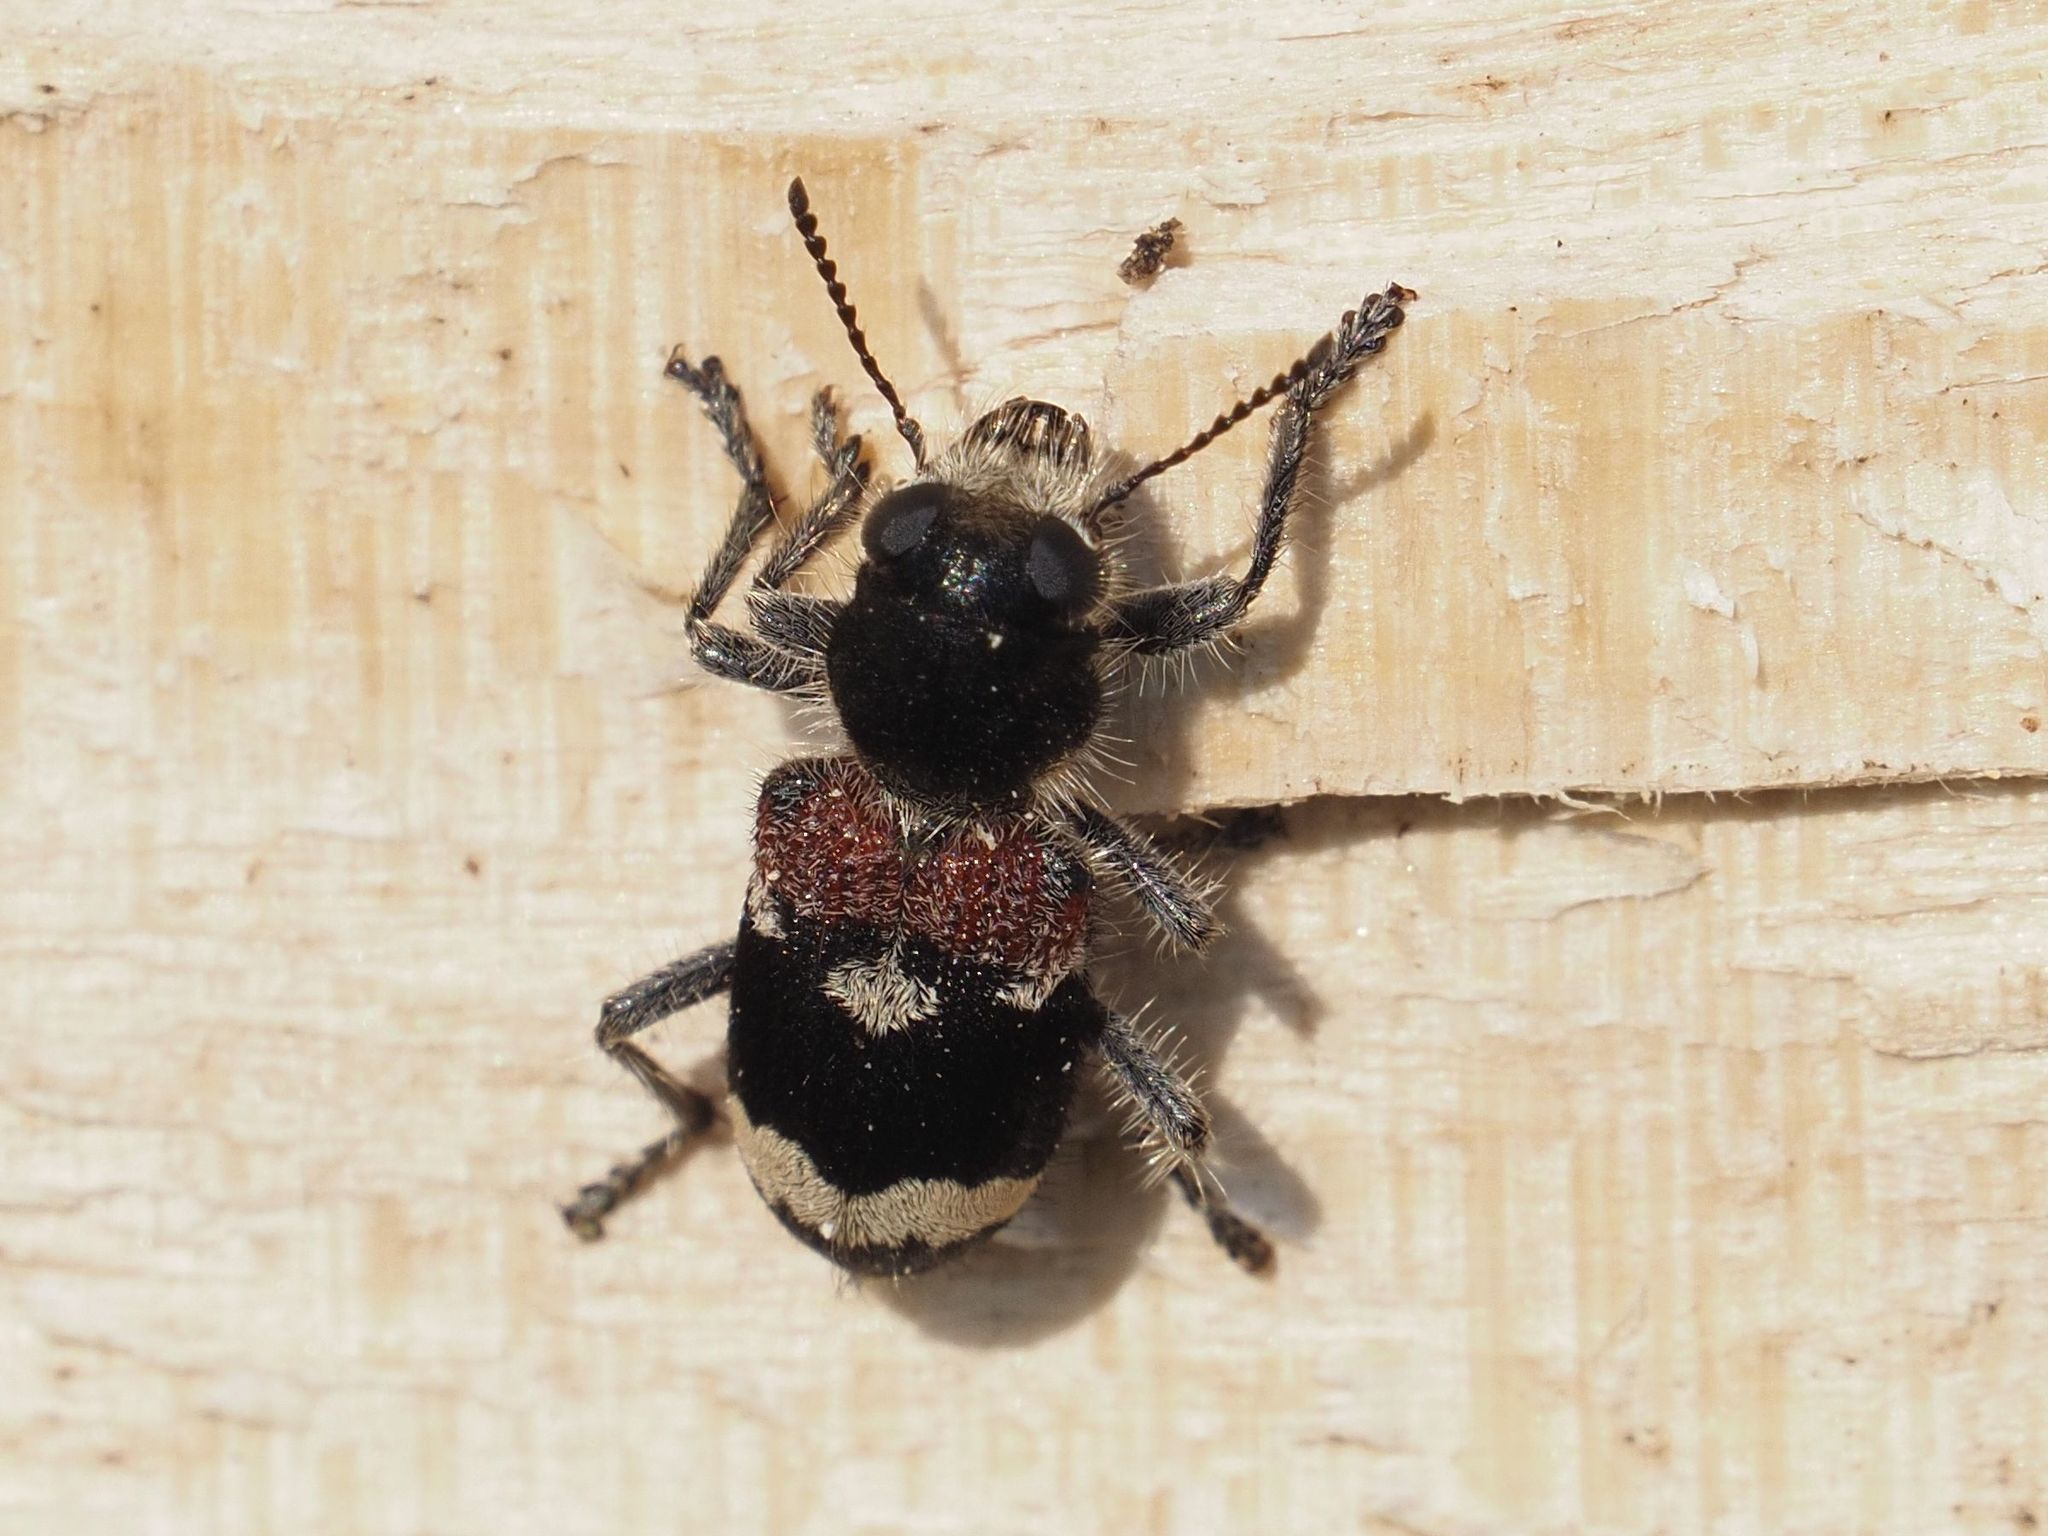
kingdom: Animalia
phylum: Arthropoda
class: Insecta
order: Coleoptera
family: Cleridae
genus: Clerus
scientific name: Clerus mutillarius
